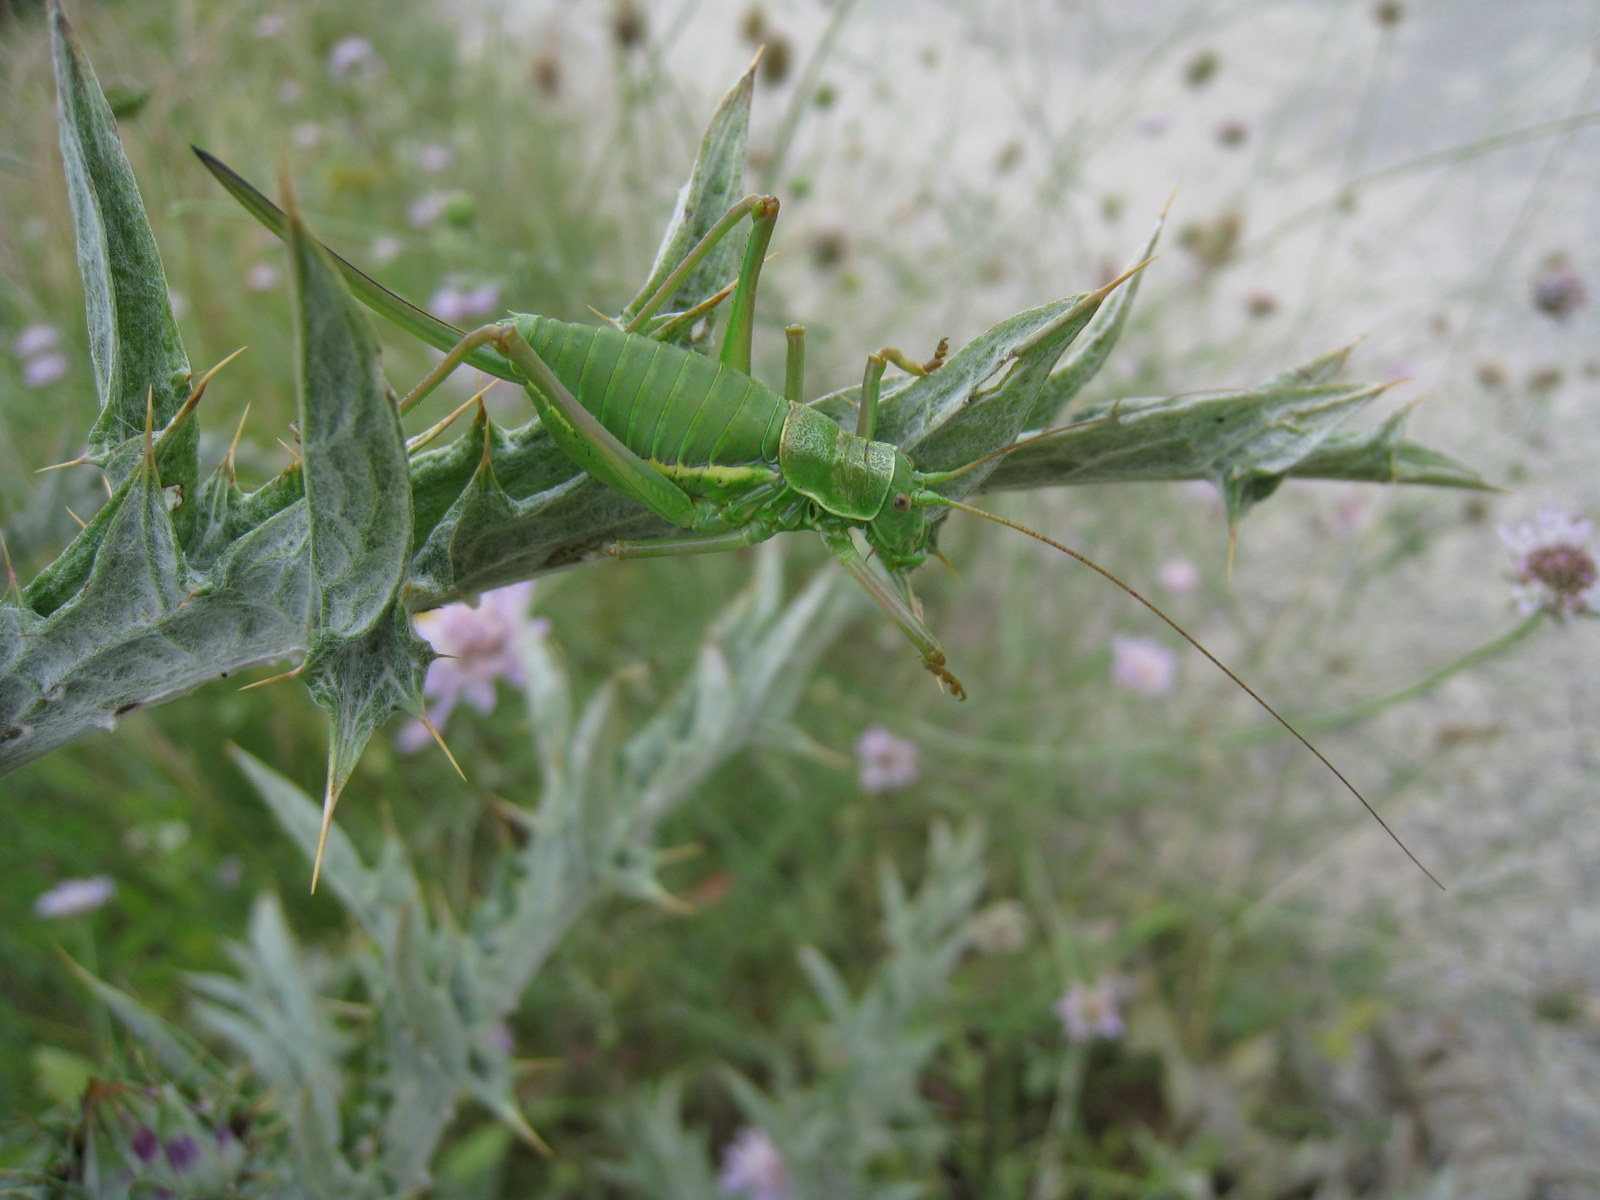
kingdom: Animalia
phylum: Arthropoda
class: Insecta
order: Orthoptera
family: Tettigoniidae
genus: Ephippiger
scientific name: Ephippiger diurnus
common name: Western saddle bush-cricket
